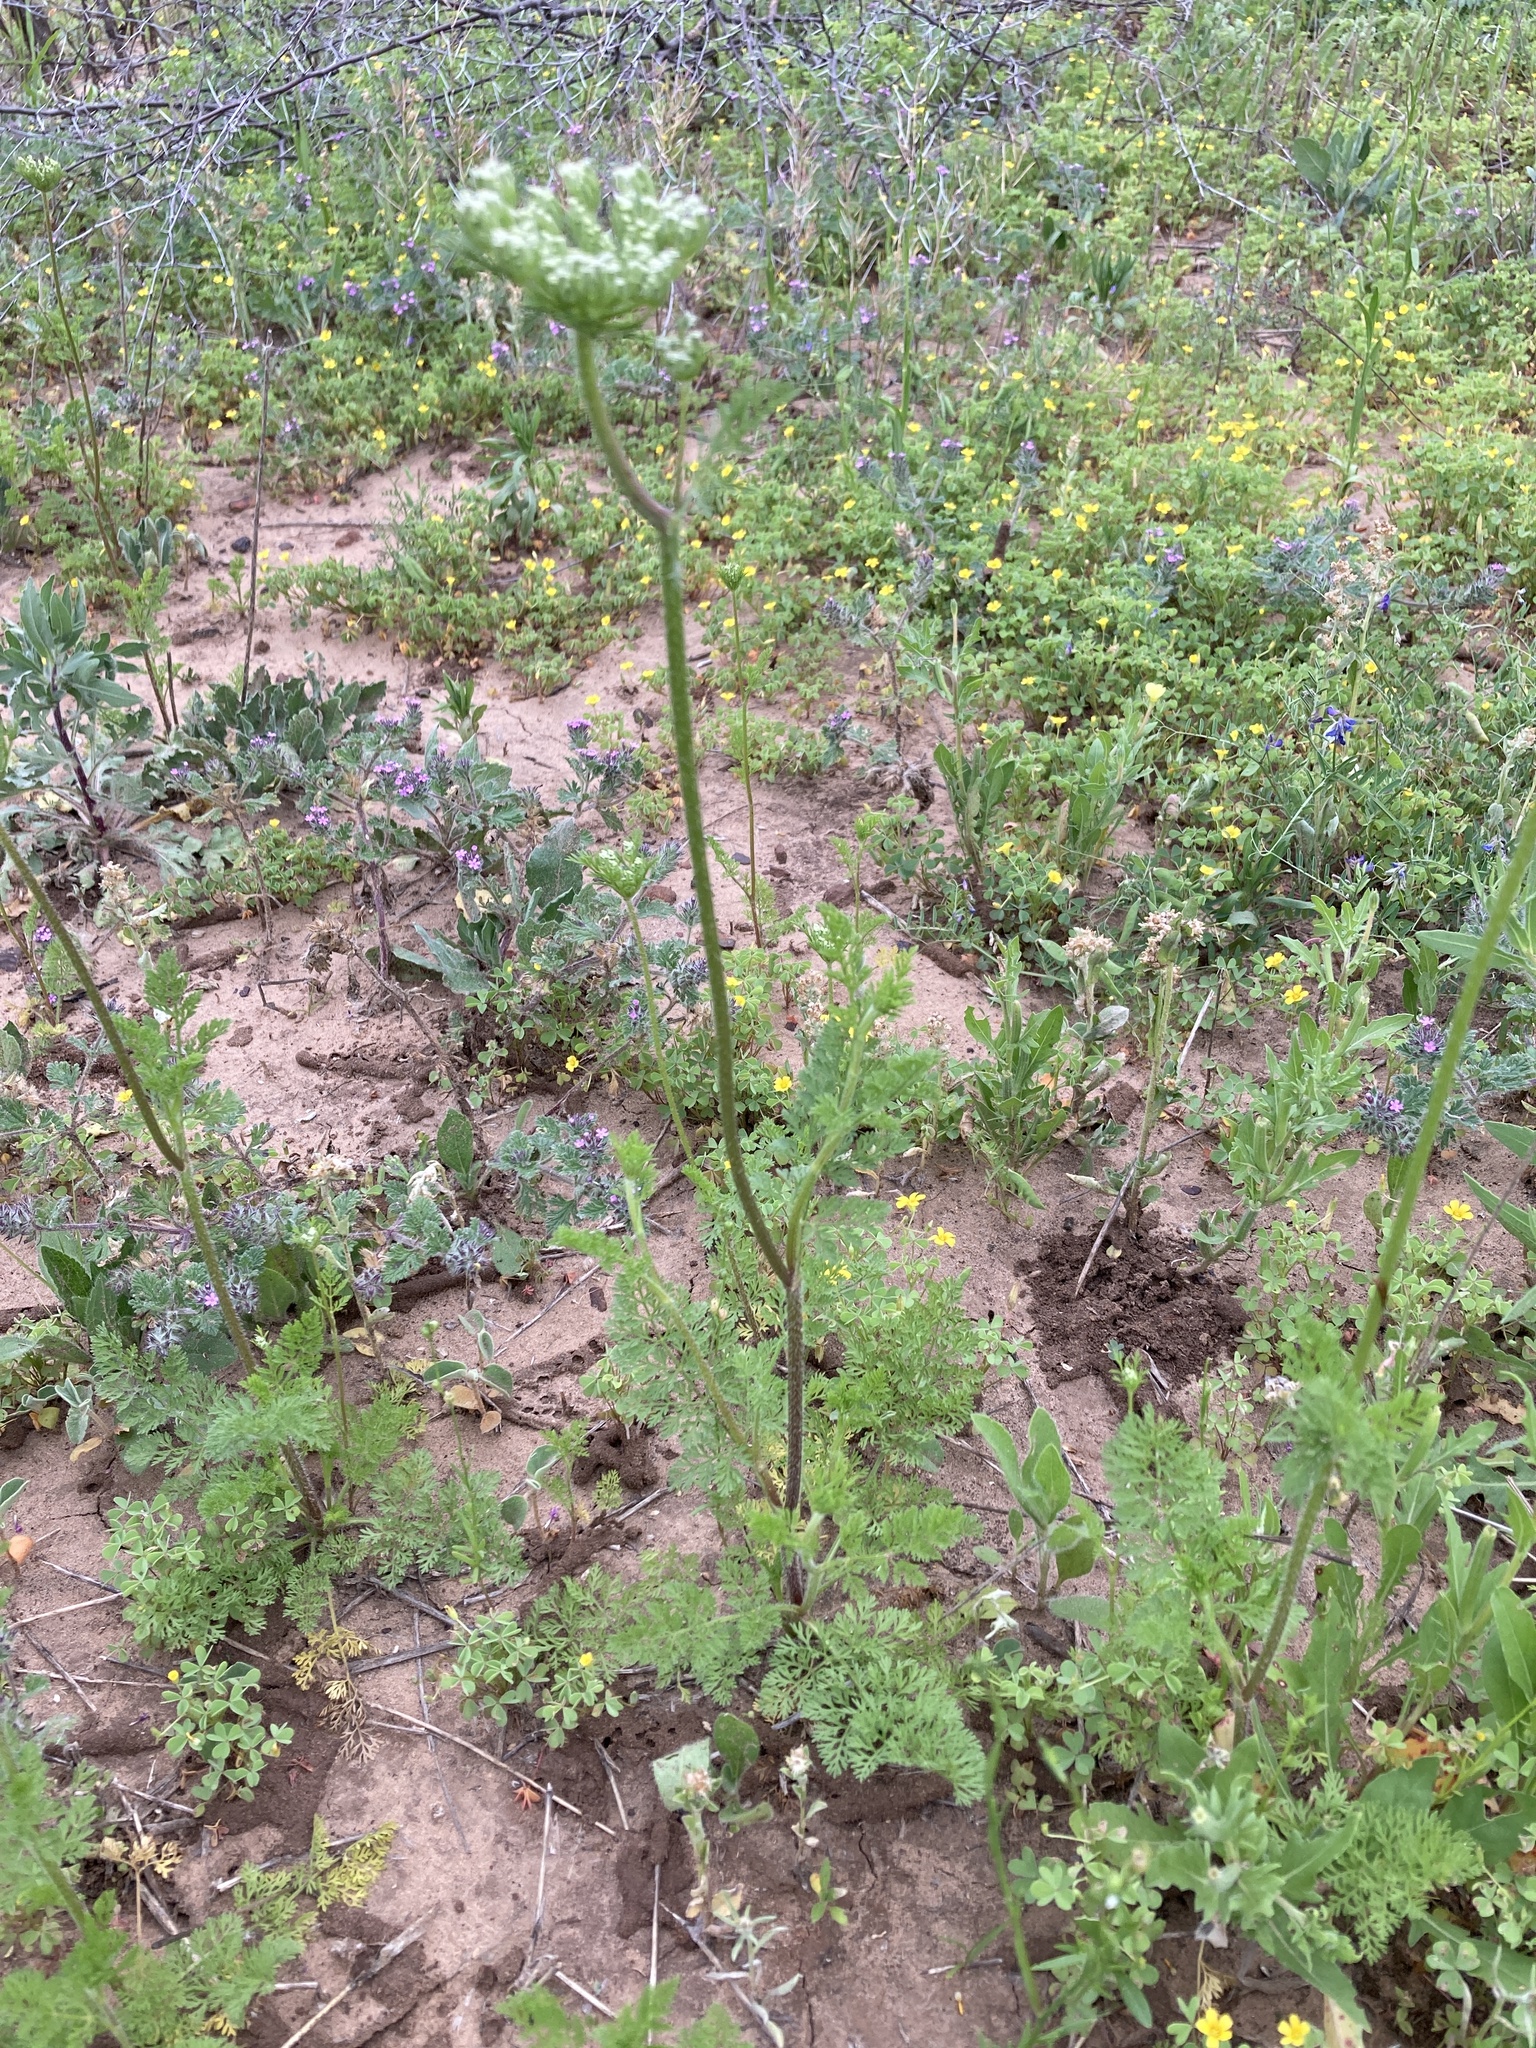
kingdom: Plantae
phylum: Tracheophyta
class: Magnoliopsida
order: Apiales
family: Apiaceae
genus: Daucus
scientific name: Daucus pusillus
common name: Southwest wild carrot
